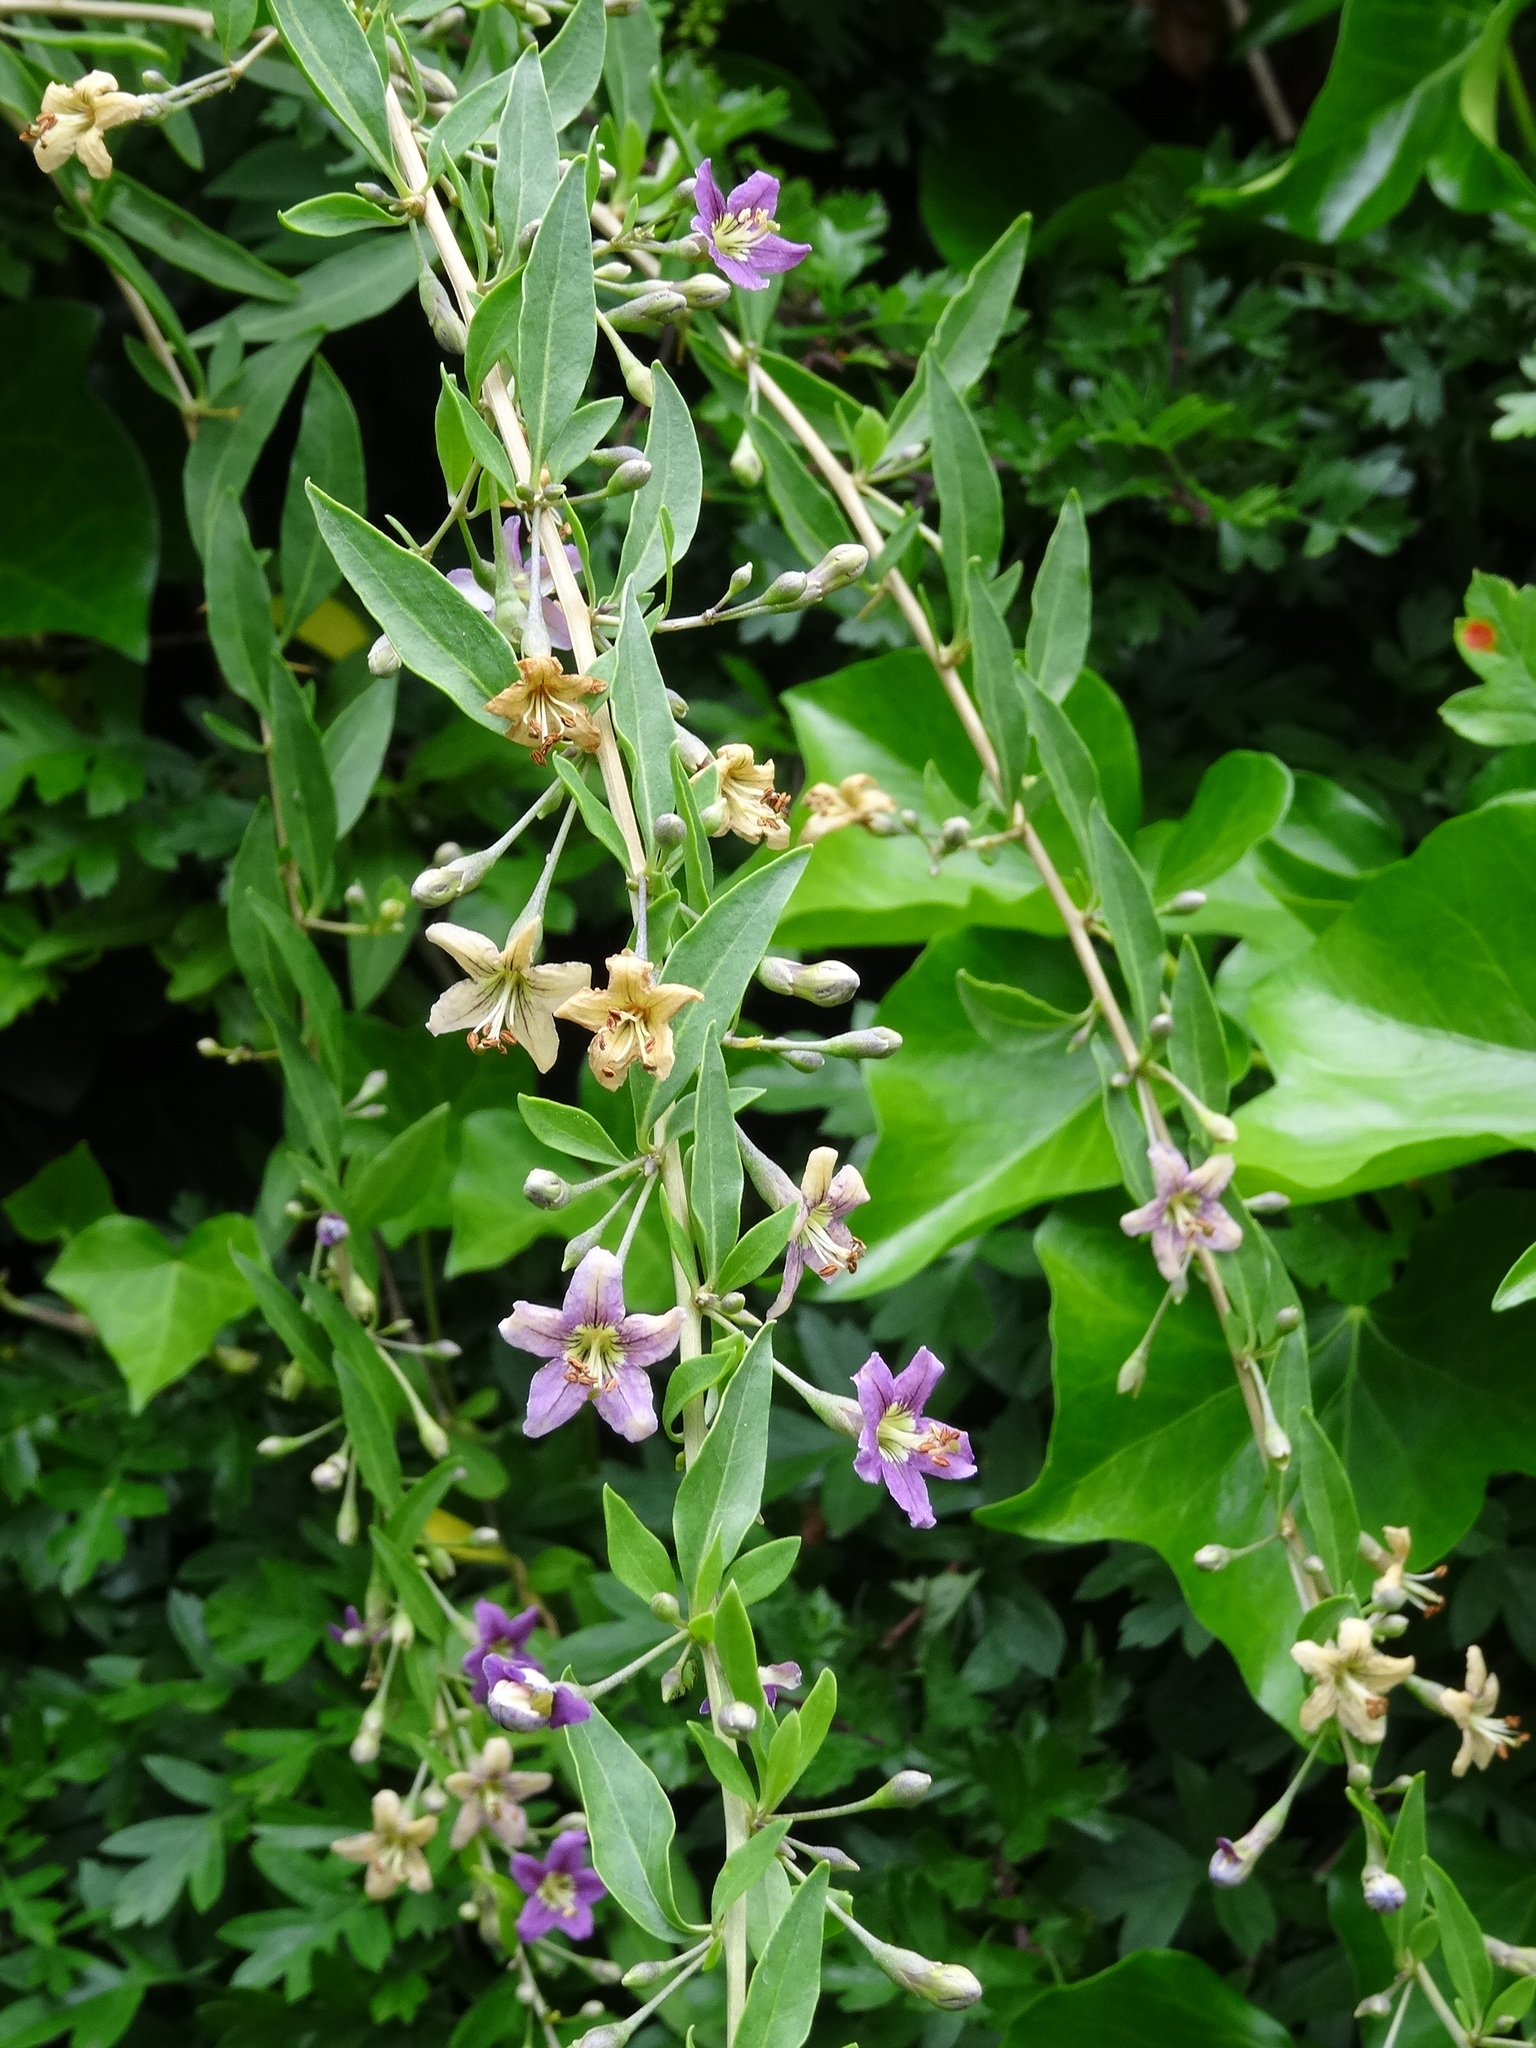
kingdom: Plantae
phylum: Tracheophyta
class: Magnoliopsida
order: Solanales
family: Solanaceae
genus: Lycium
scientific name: Lycium barbarum
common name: Duke of argyll's teaplant
